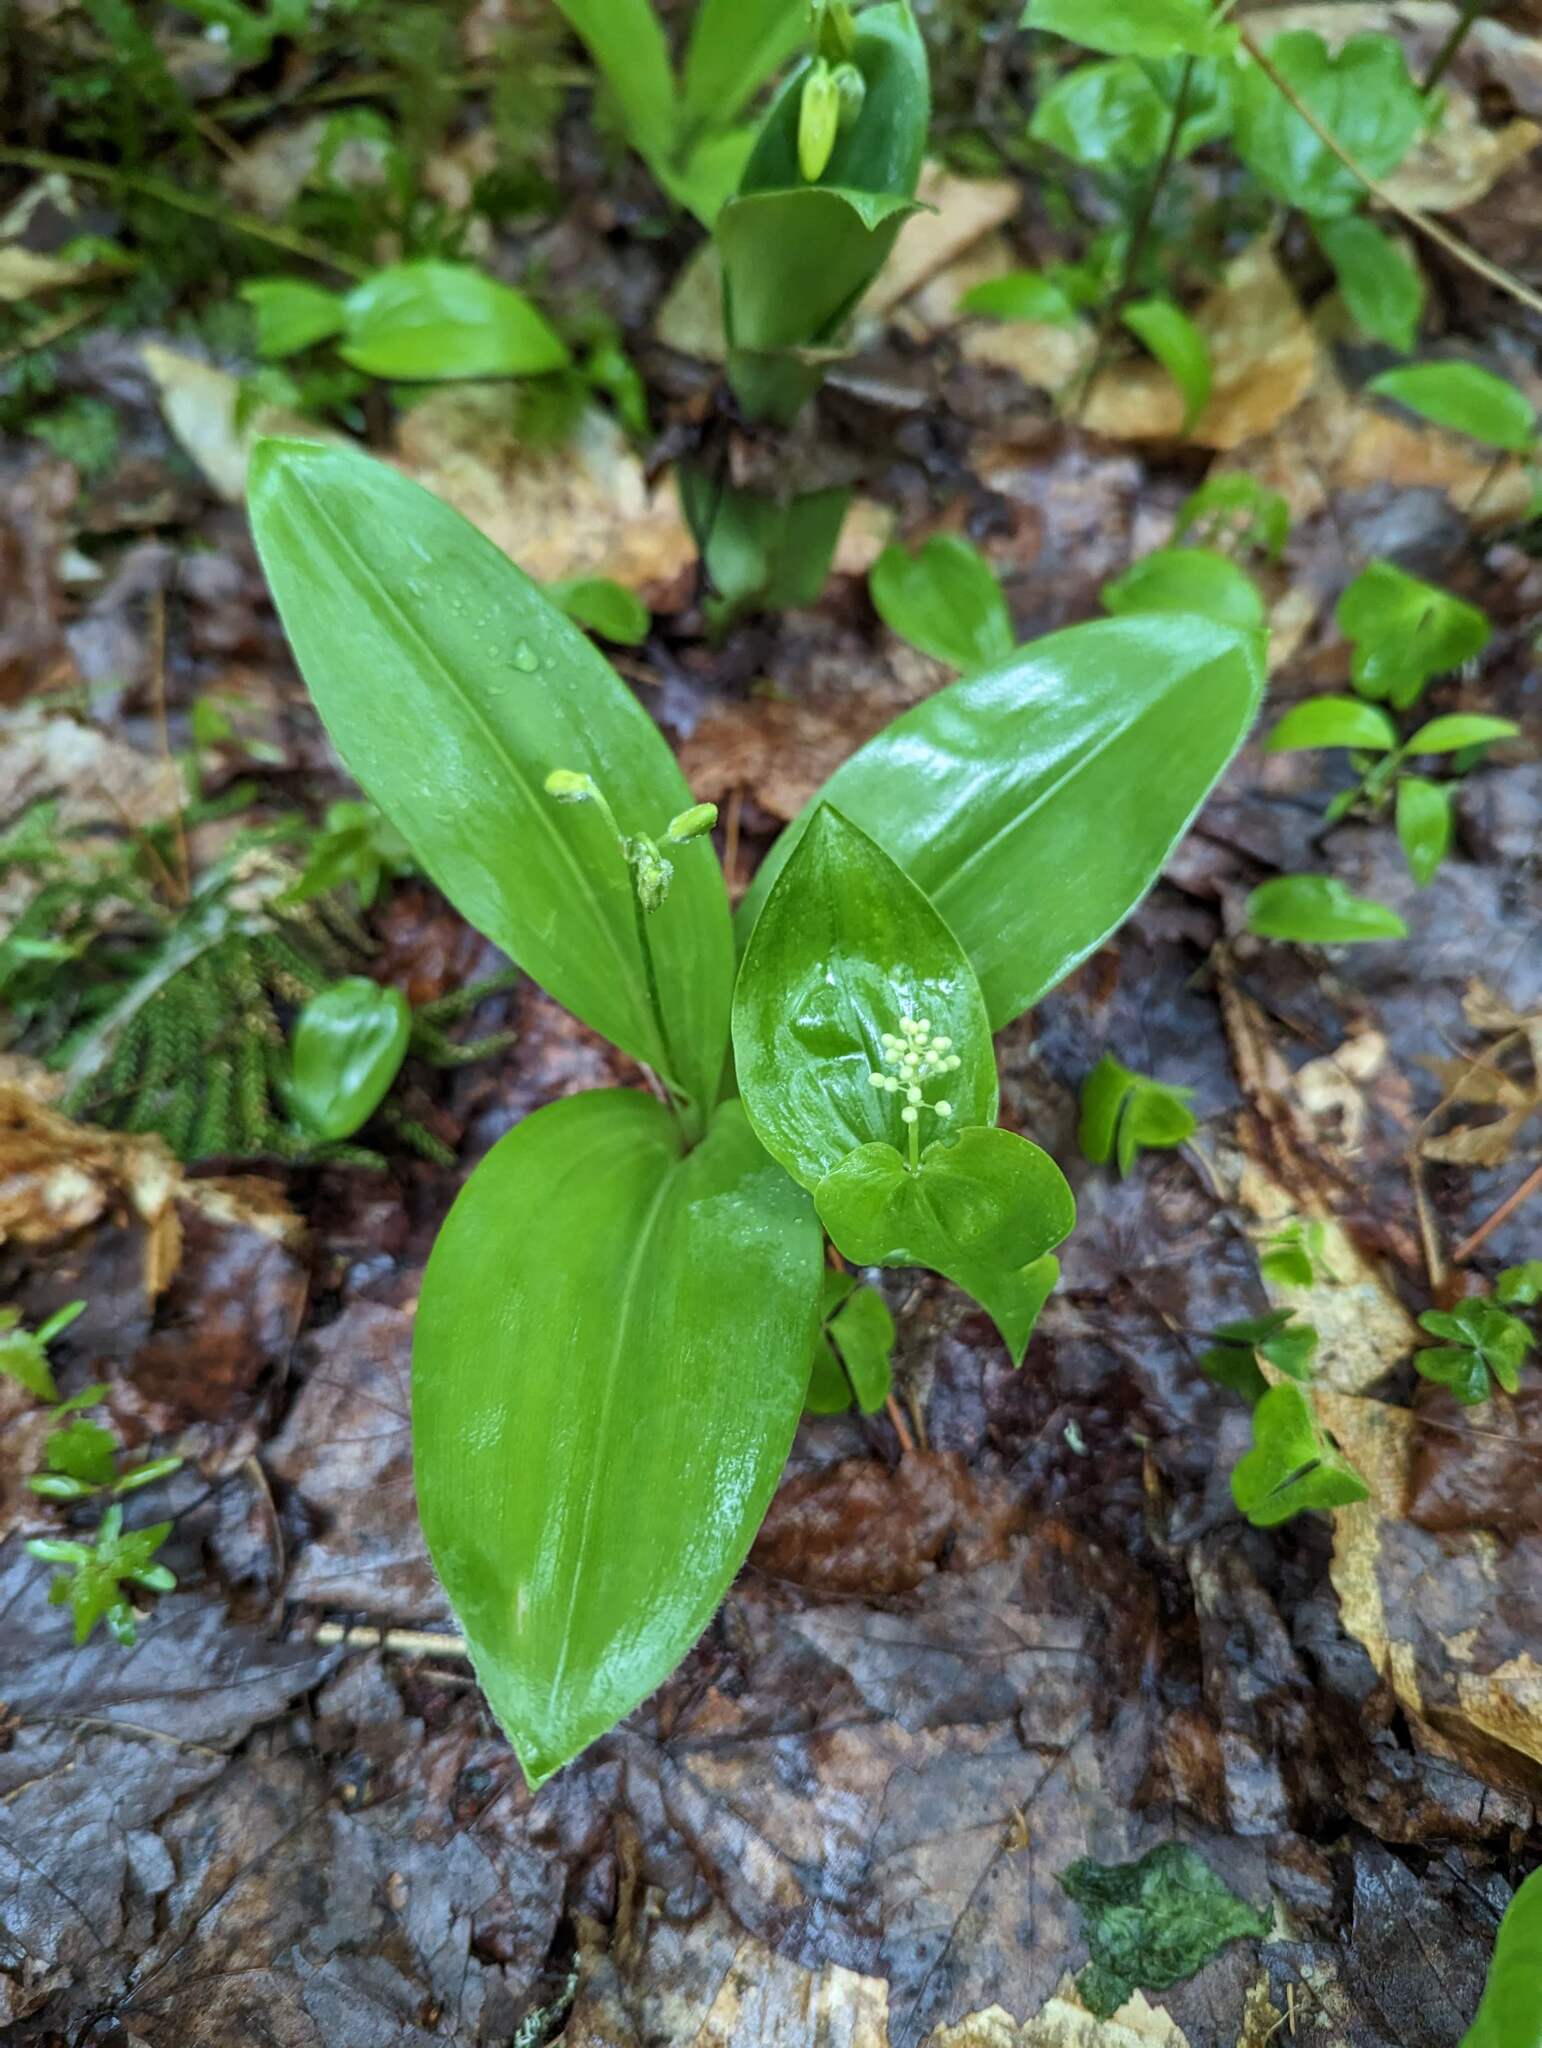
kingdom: Plantae
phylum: Tracheophyta
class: Liliopsida
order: Liliales
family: Liliaceae
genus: Clintonia
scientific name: Clintonia borealis
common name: Yellow clintonia
